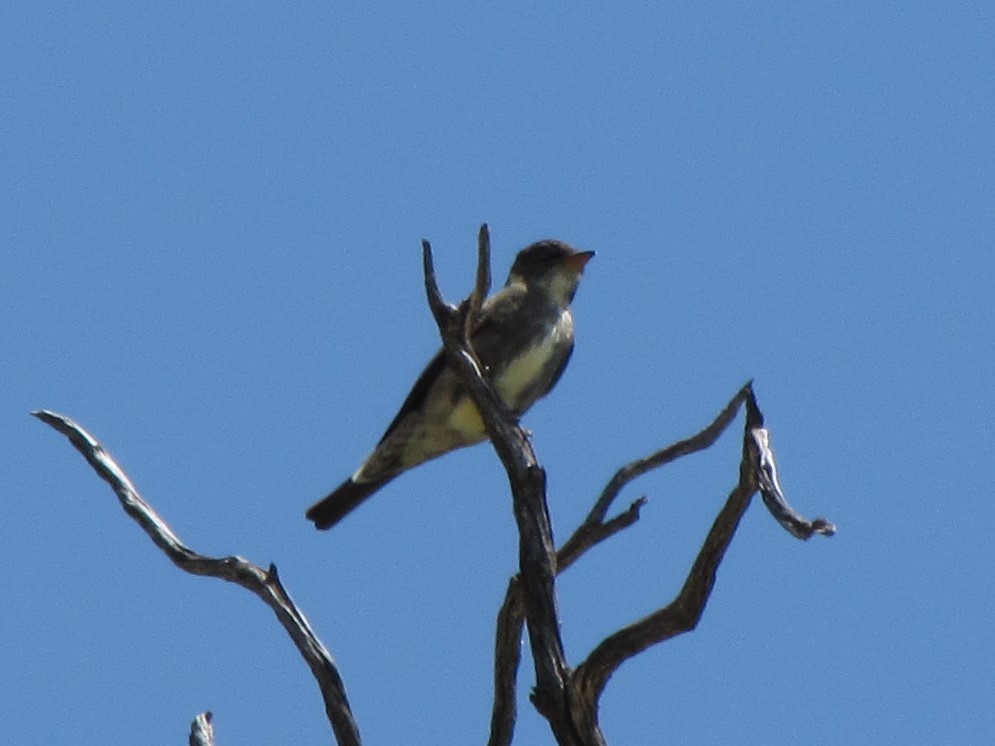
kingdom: Animalia
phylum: Chordata
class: Aves
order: Passeriformes
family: Tyrannidae
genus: Contopus
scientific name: Contopus cooperi
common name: Olive-sided flycatcher
